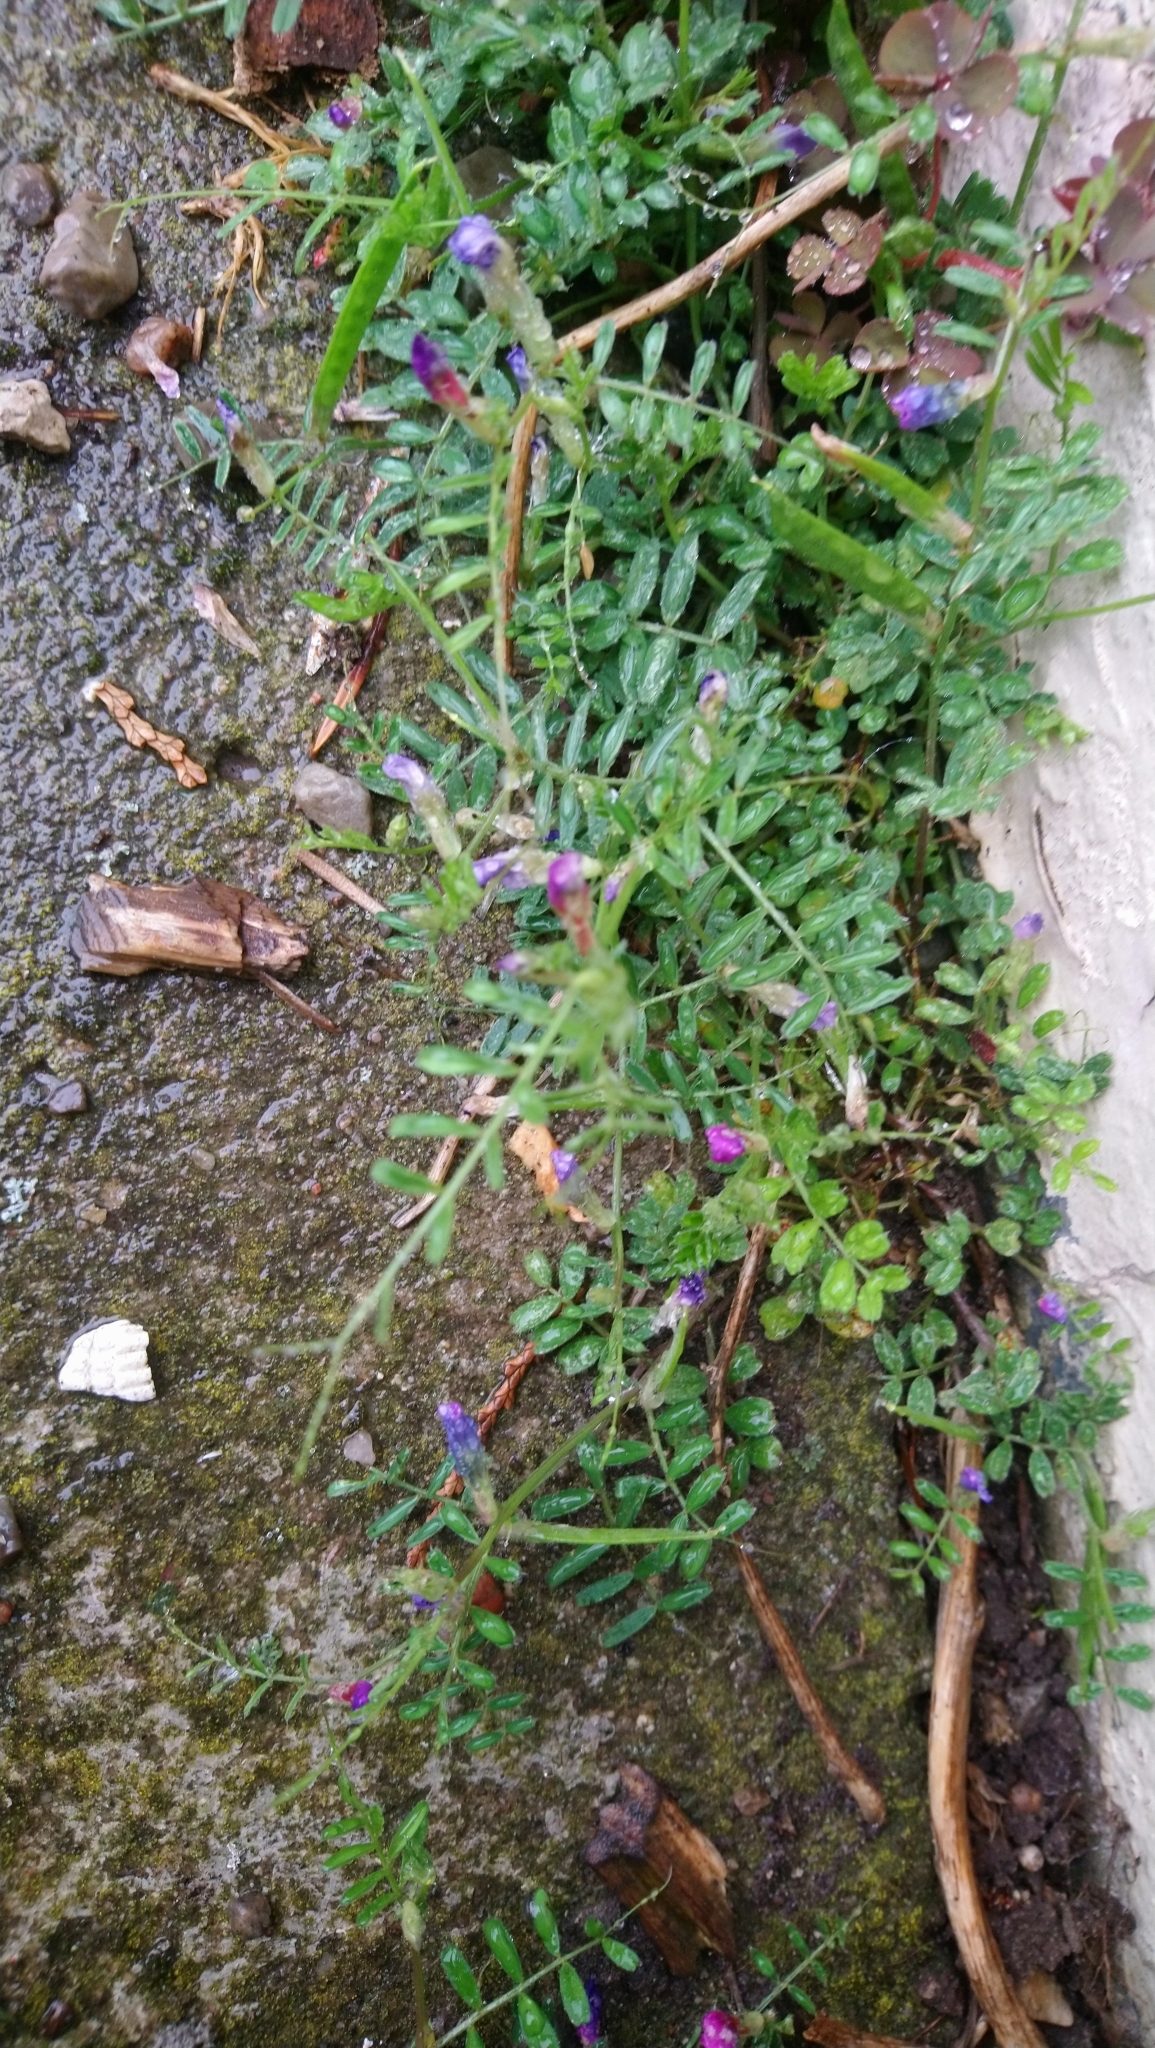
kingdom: Plantae
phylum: Tracheophyta
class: Magnoliopsida
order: Fabales
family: Fabaceae
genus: Vicia
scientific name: Vicia lathyroides
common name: Spring vetch
